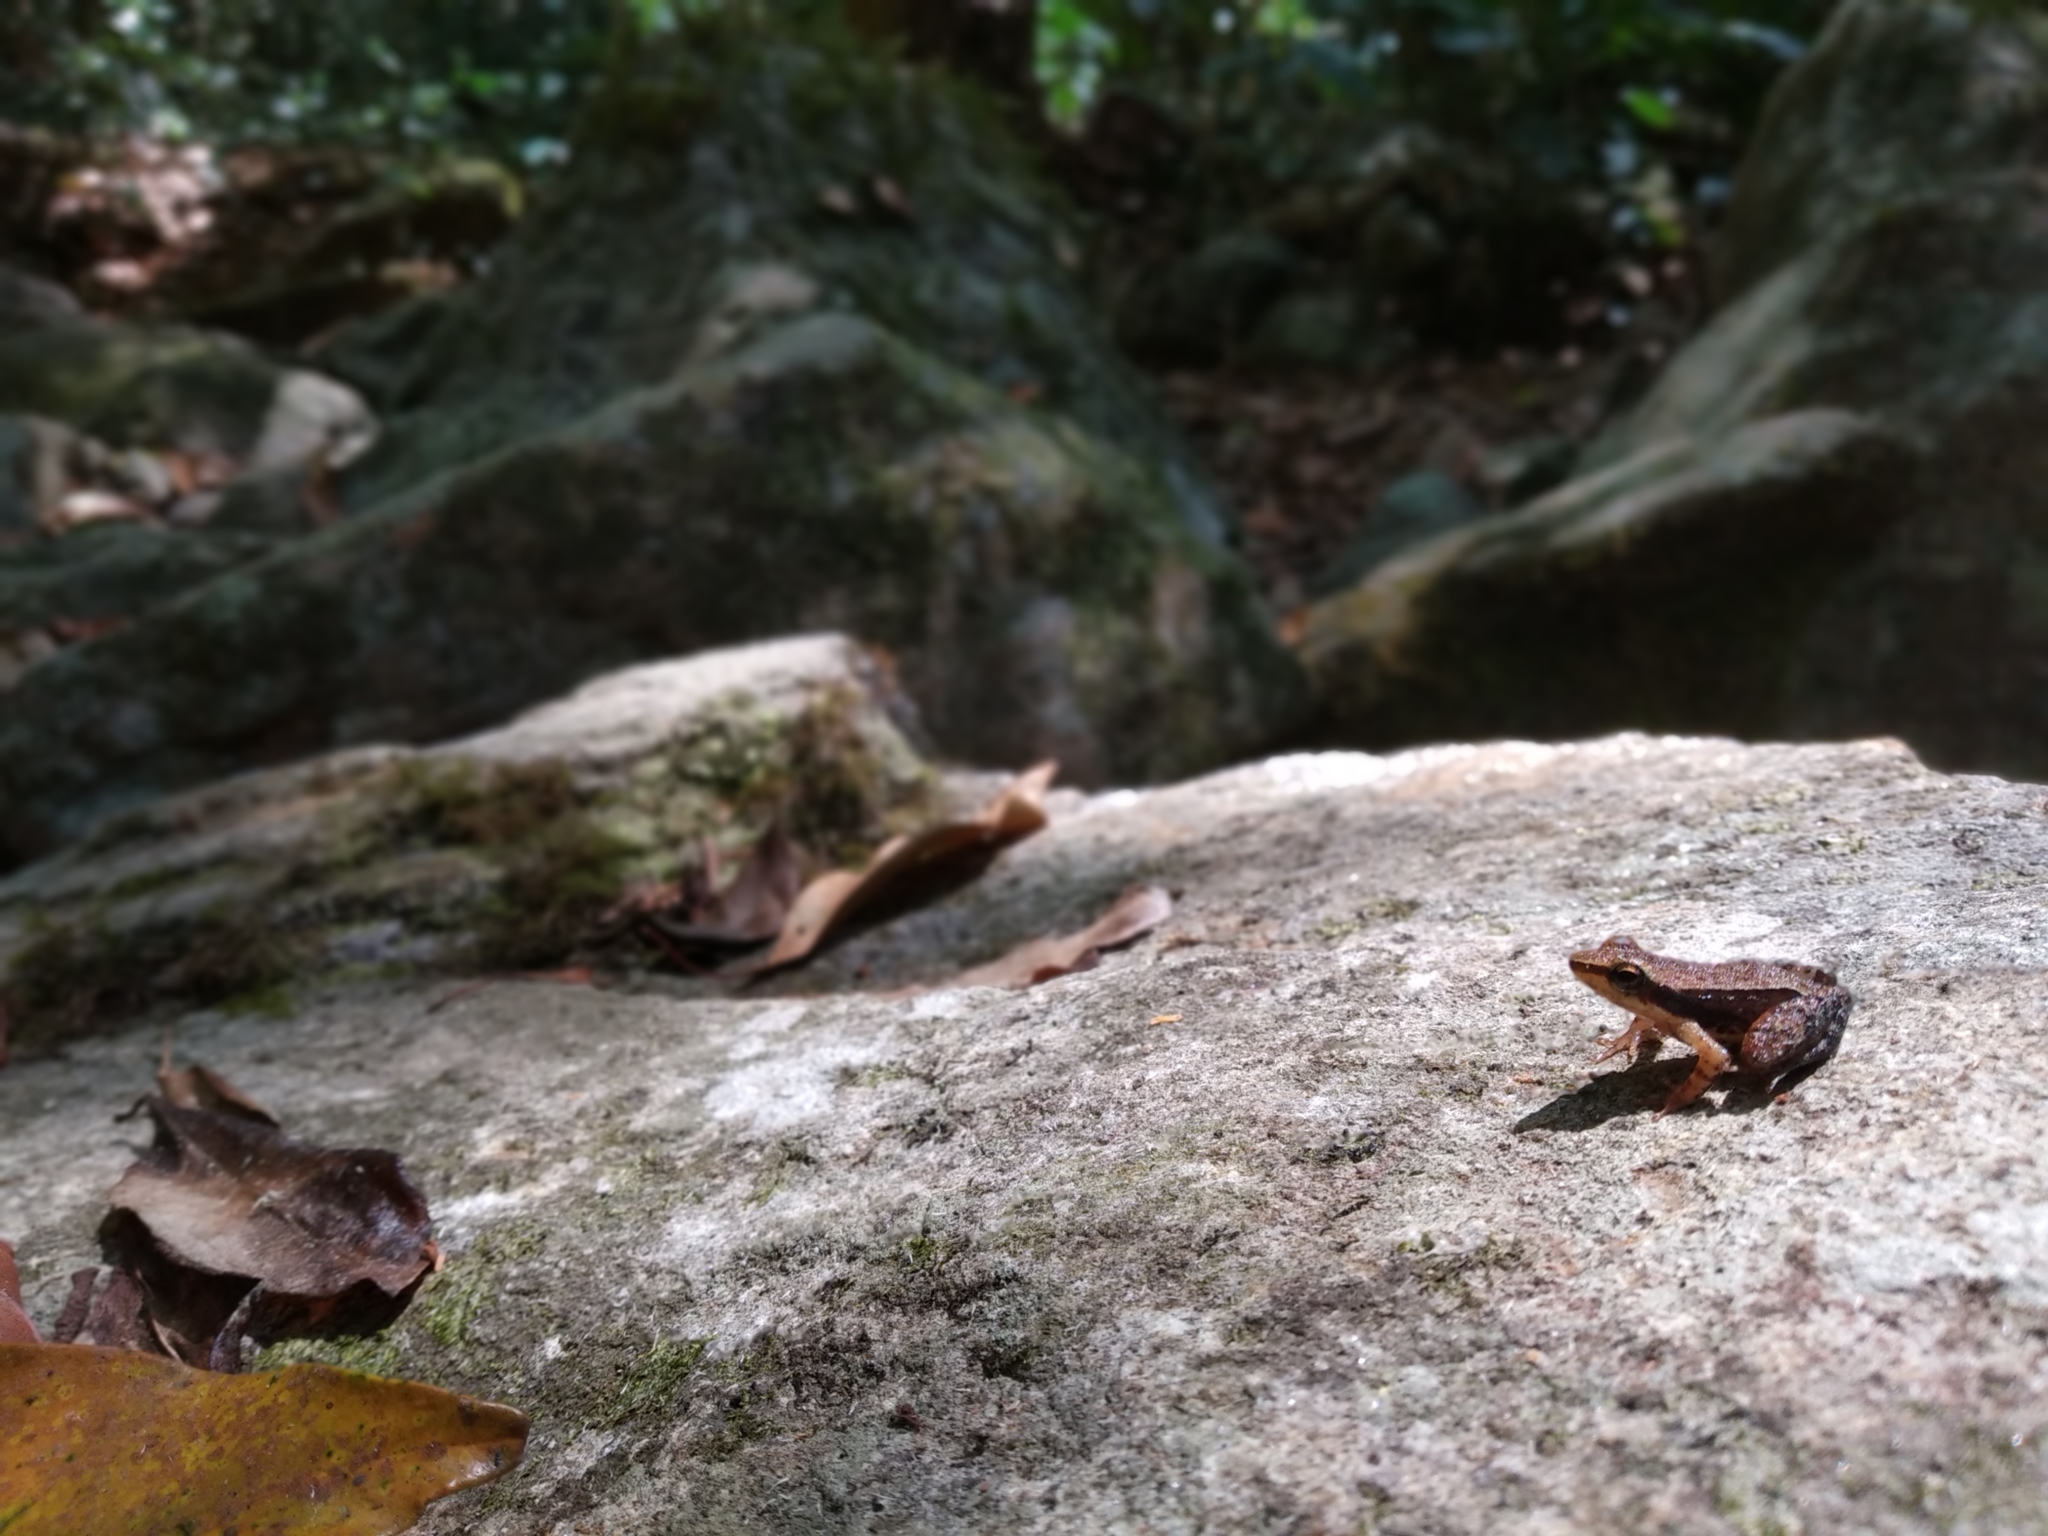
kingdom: Animalia
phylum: Chordata
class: Amphibia
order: Anura
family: Micrixalidae
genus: Micrixalus
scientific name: Micrixalus sairandhri
